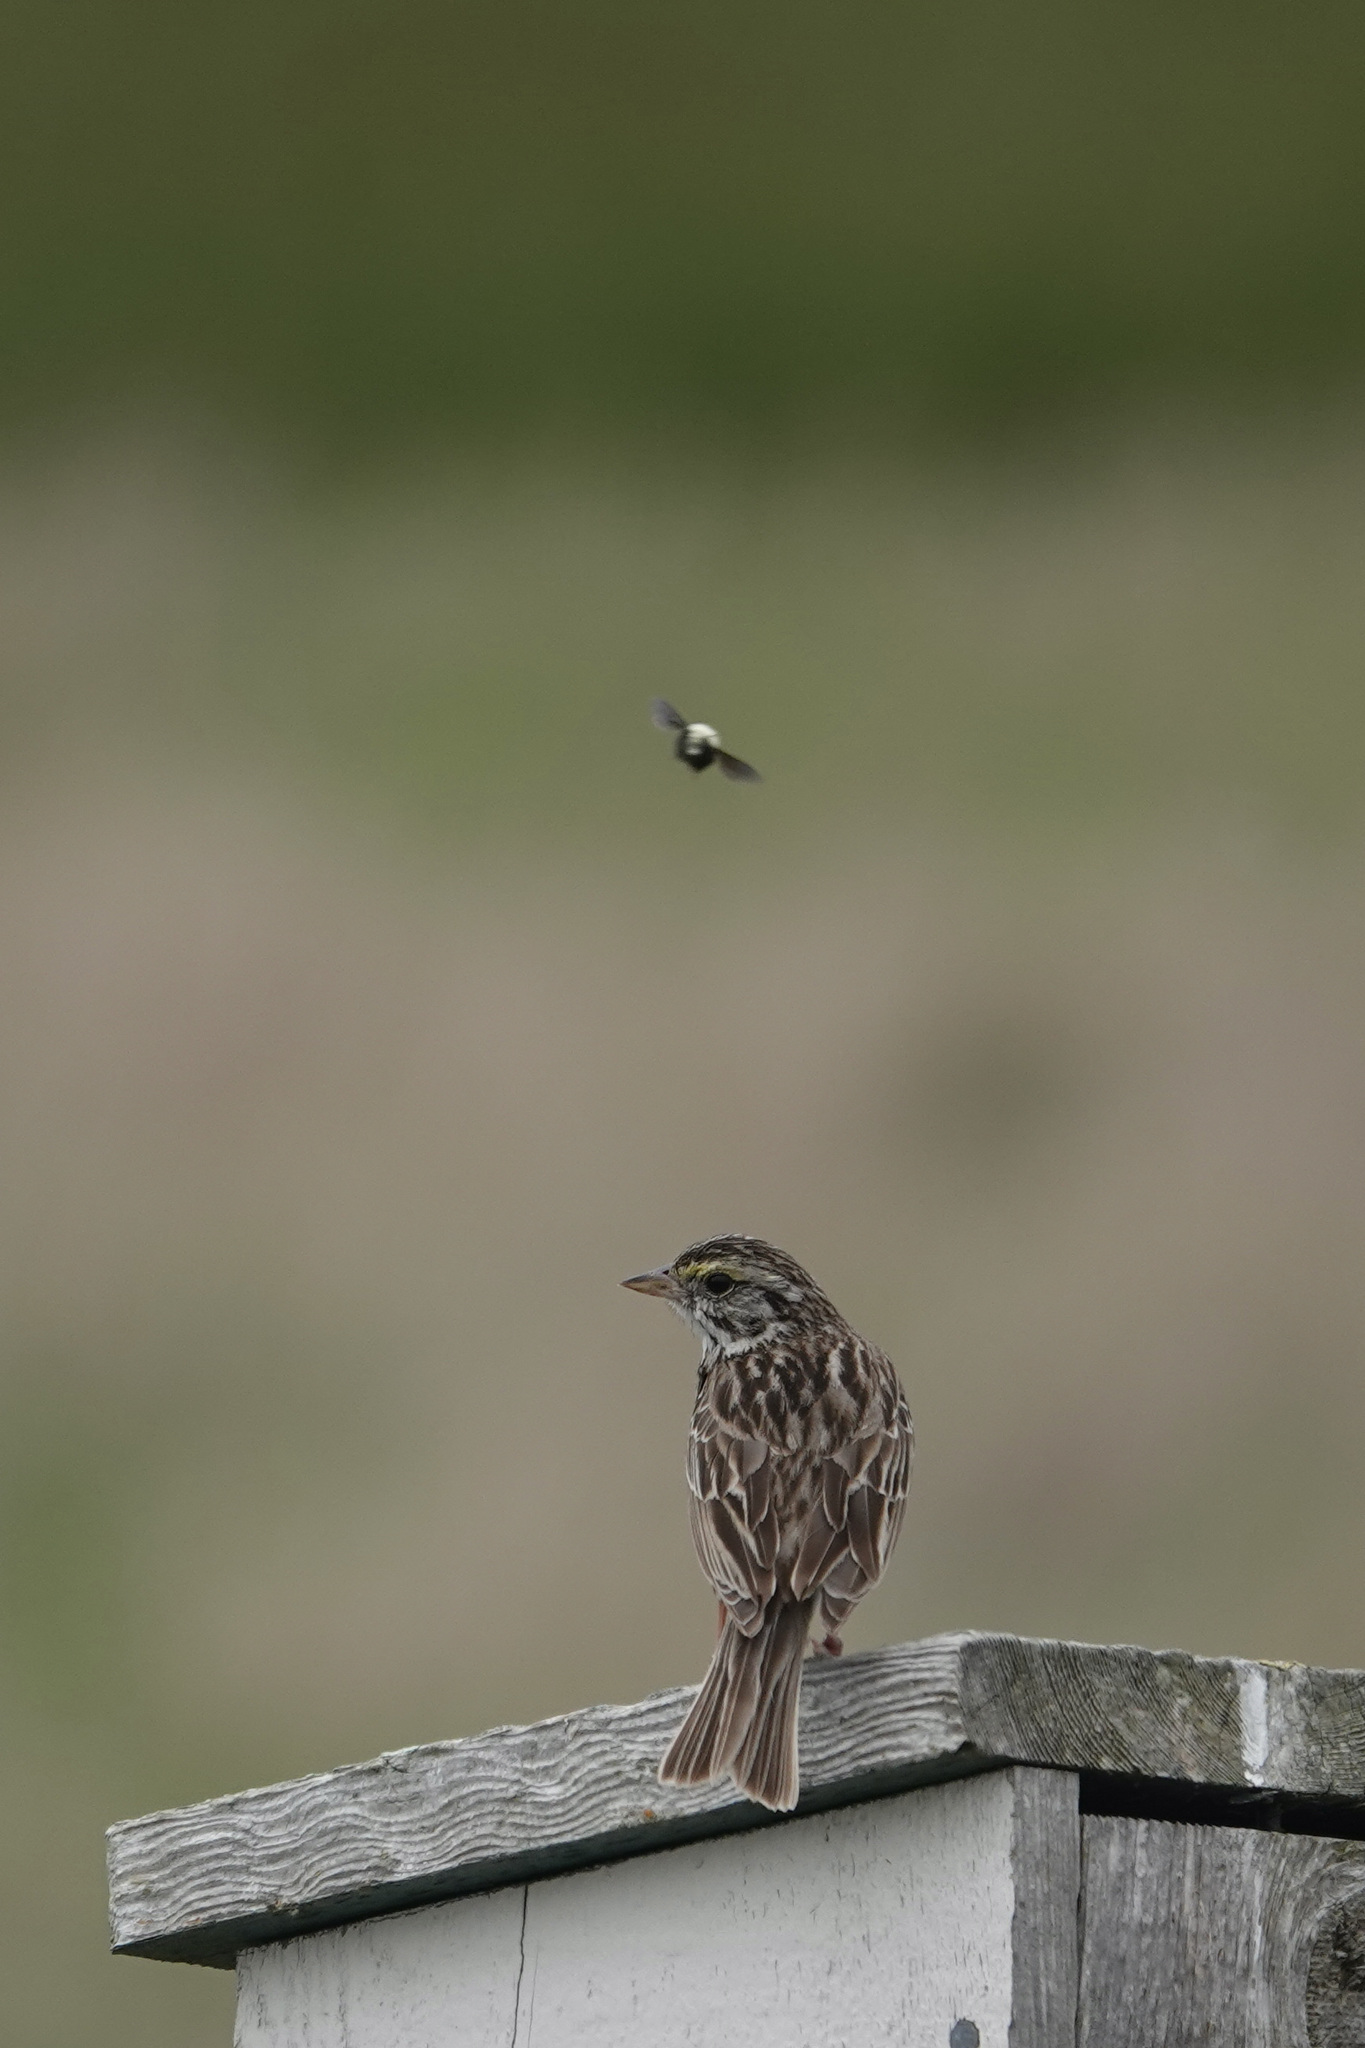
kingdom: Animalia
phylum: Chordata
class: Aves
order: Passeriformes
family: Passerellidae
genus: Passerculus
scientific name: Passerculus sandwichensis
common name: Savannah sparrow
